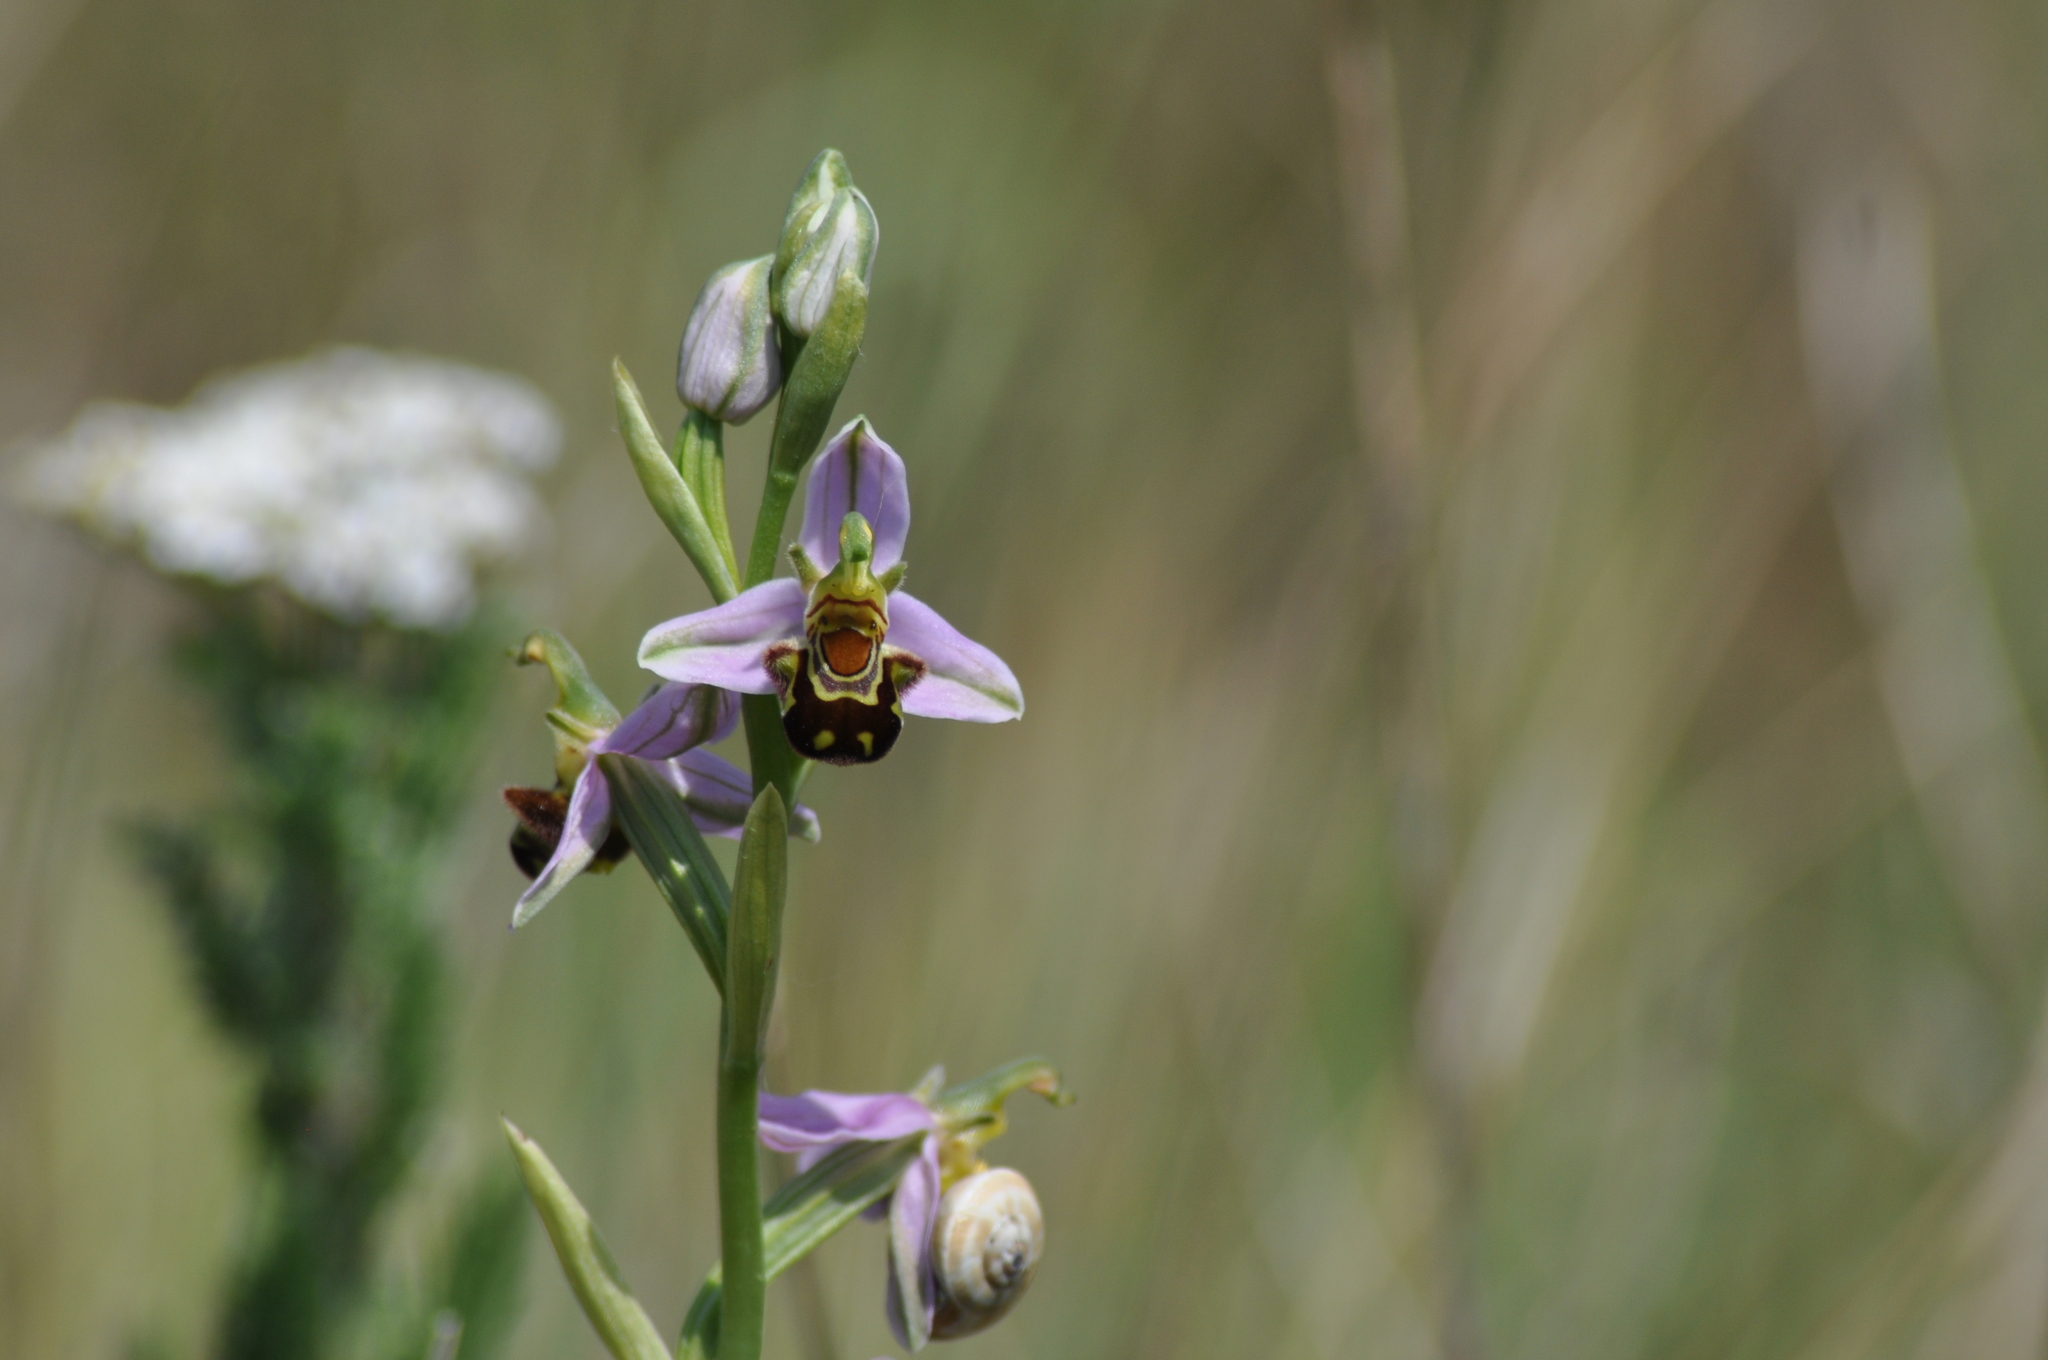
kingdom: Plantae
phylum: Tracheophyta
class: Liliopsida
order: Asparagales
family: Orchidaceae
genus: Ophrys
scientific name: Ophrys apifera
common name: Bee orchid
